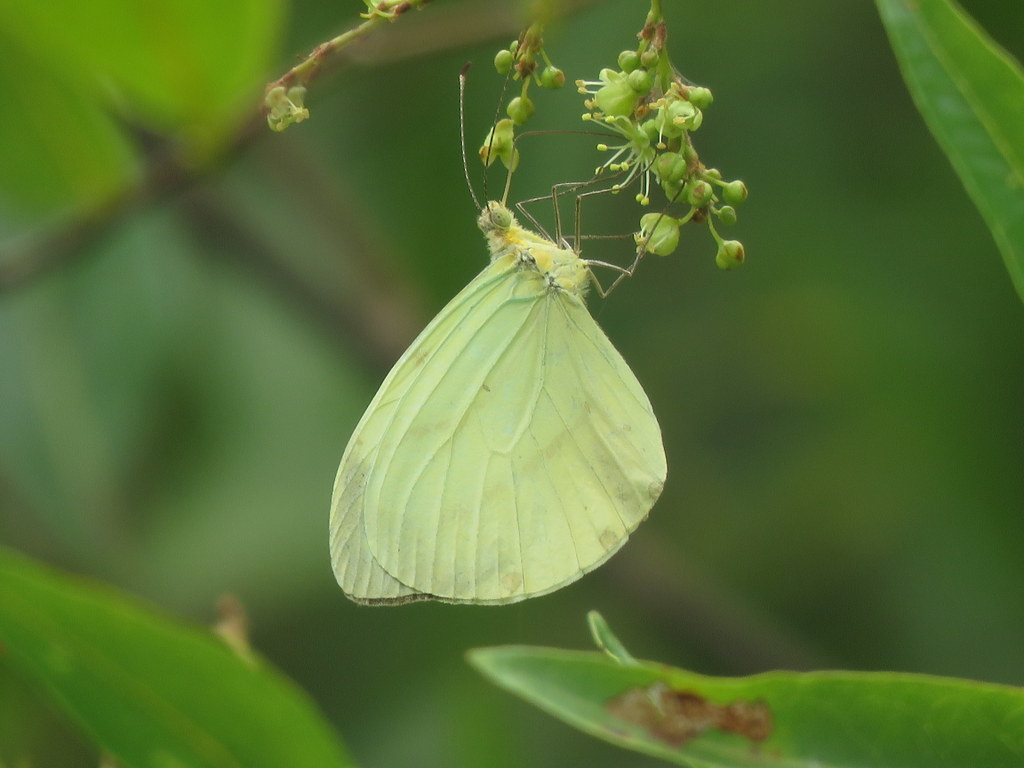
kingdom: Animalia
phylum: Arthropoda
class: Insecta
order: Lepidoptera
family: Pieridae
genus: Enantia
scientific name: Enantia lina
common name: White mimic-white
